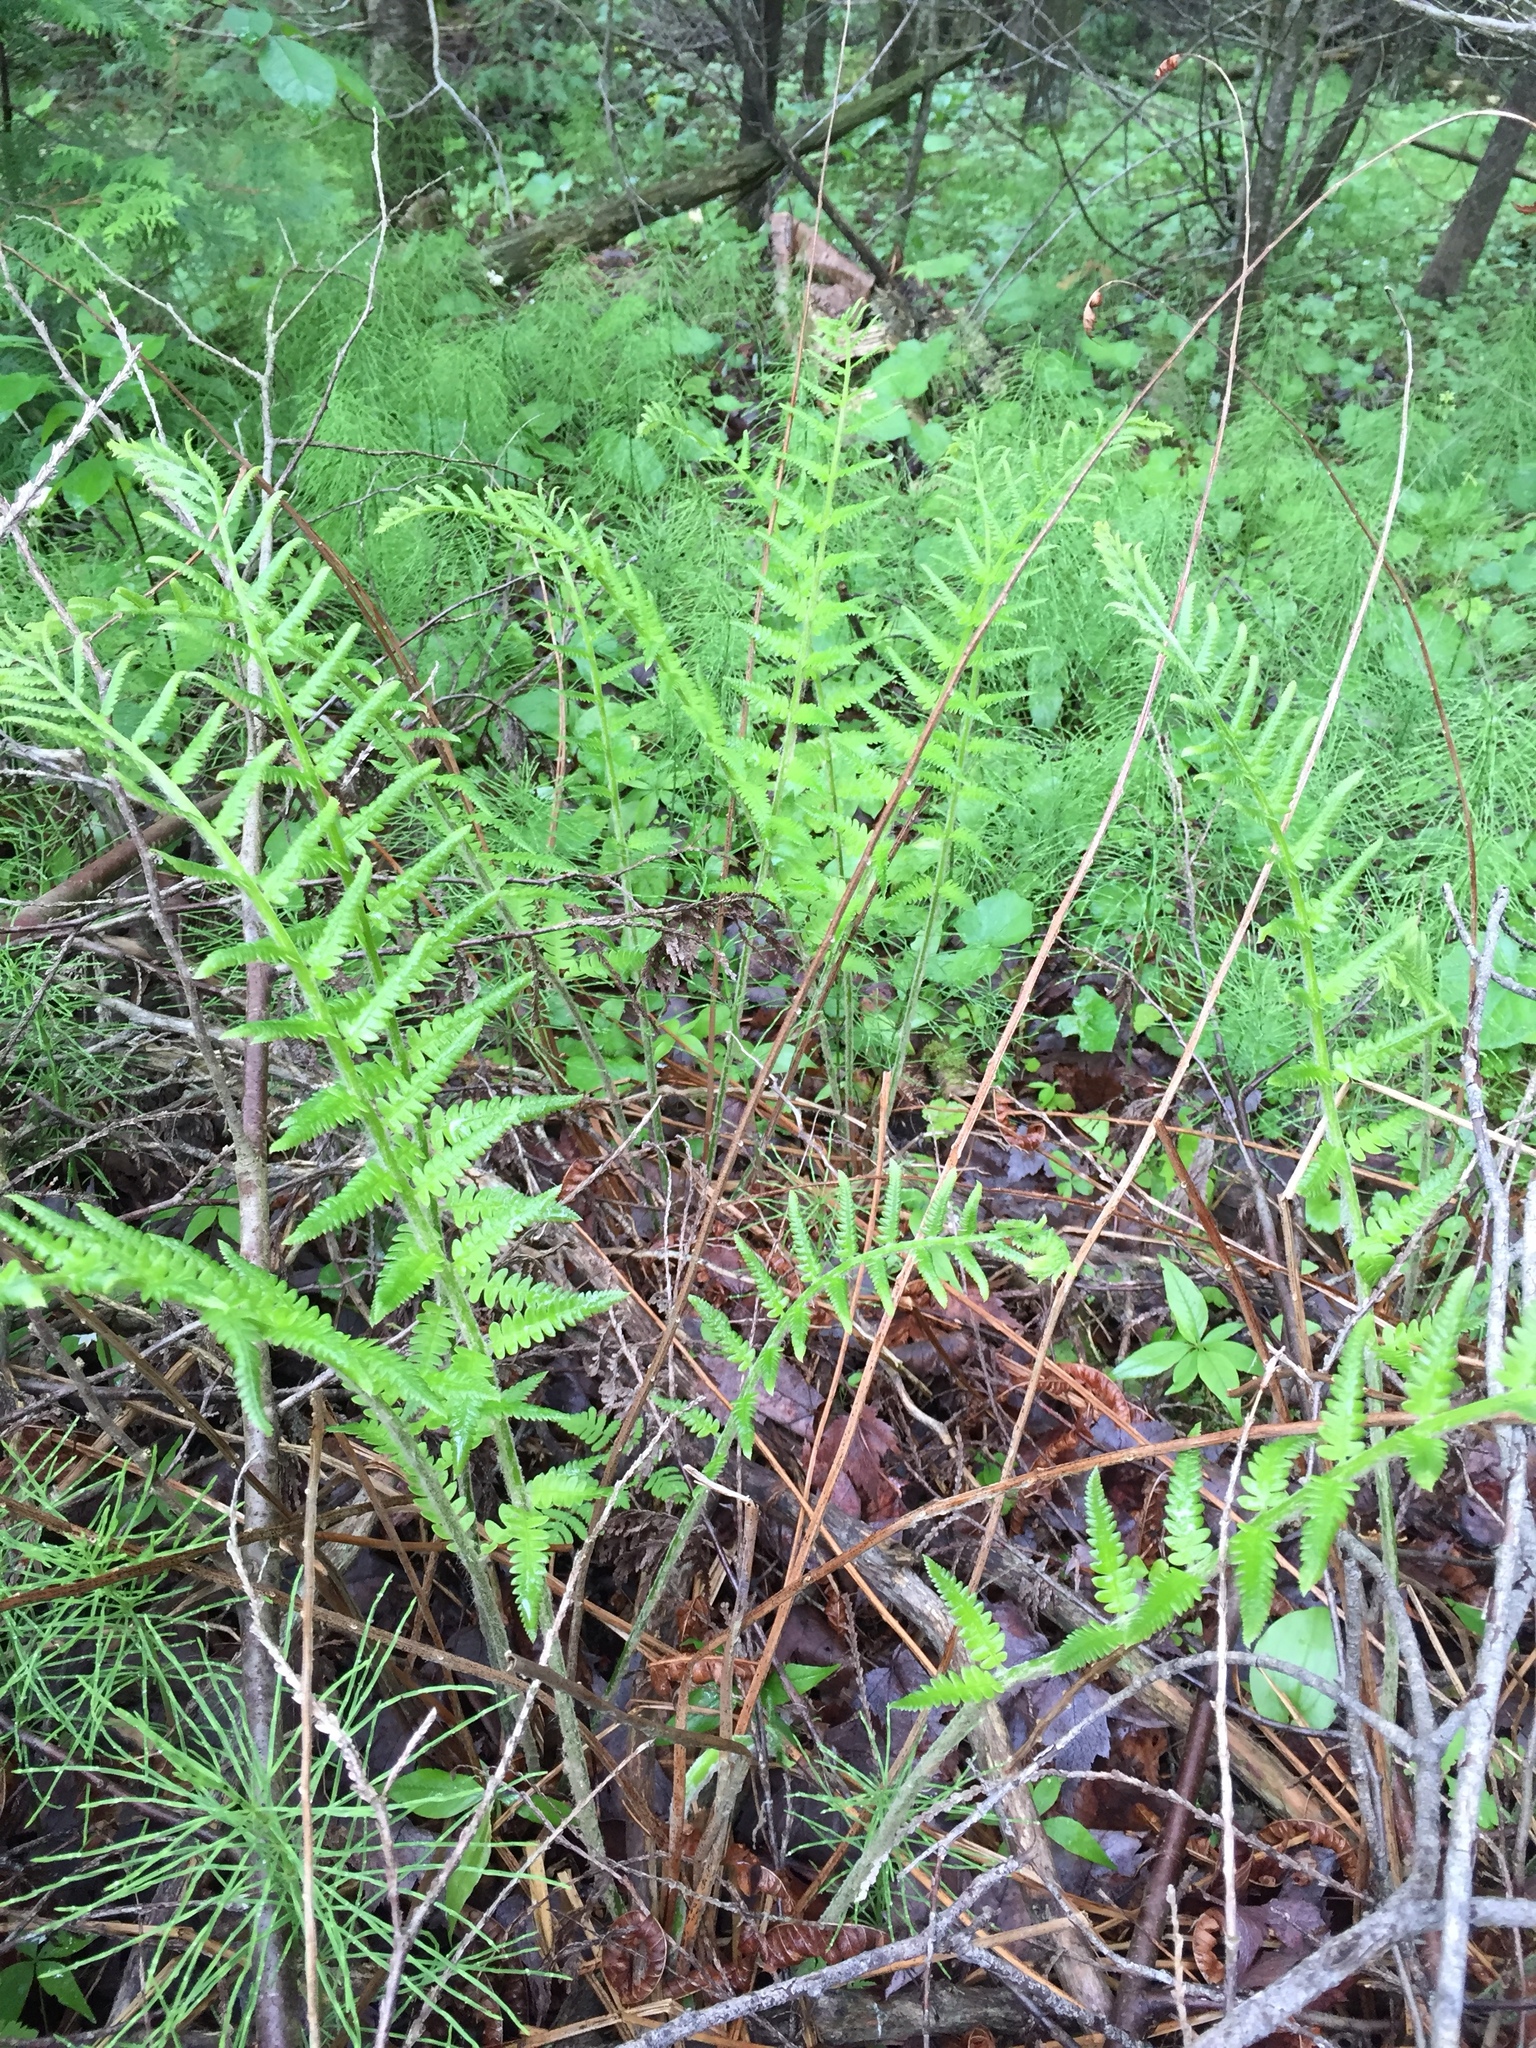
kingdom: Plantae
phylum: Tracheophyta
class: Polypodiopsida
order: Polypodiales
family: Thelypteridaceae
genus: Thelypteris
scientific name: Thelypteris palustris
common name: Marsh fern
